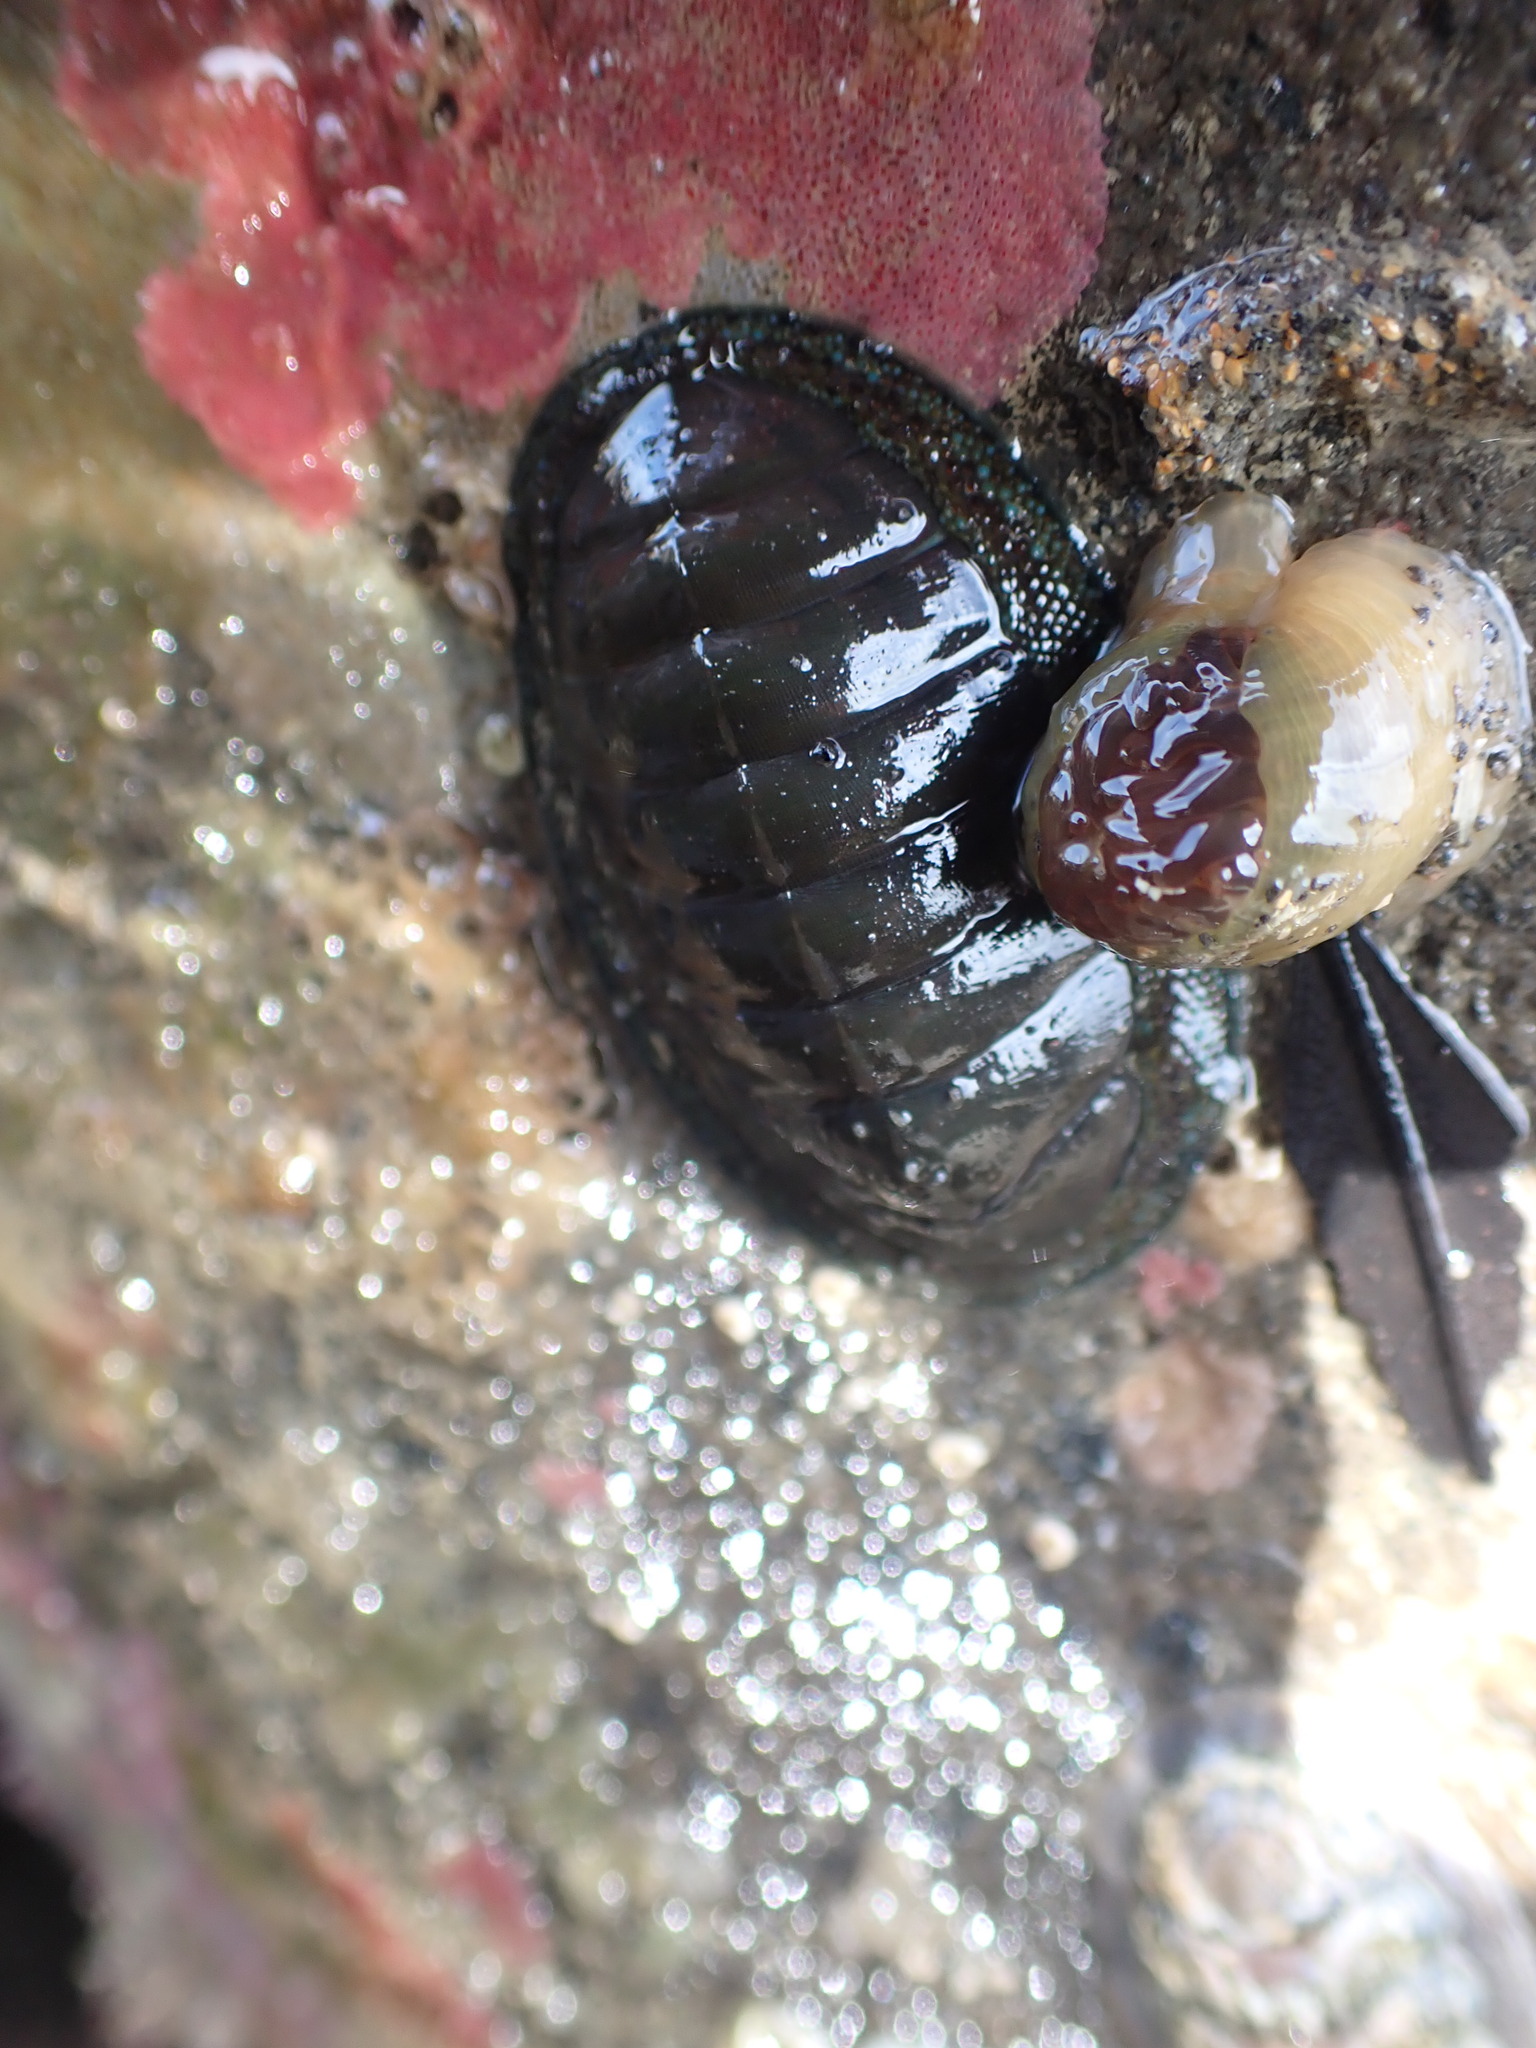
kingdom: Animalia
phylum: Mollusca
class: Polyplacophora
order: Chitonida
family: Chitonidae
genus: Chiton
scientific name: Chiton glaucus
